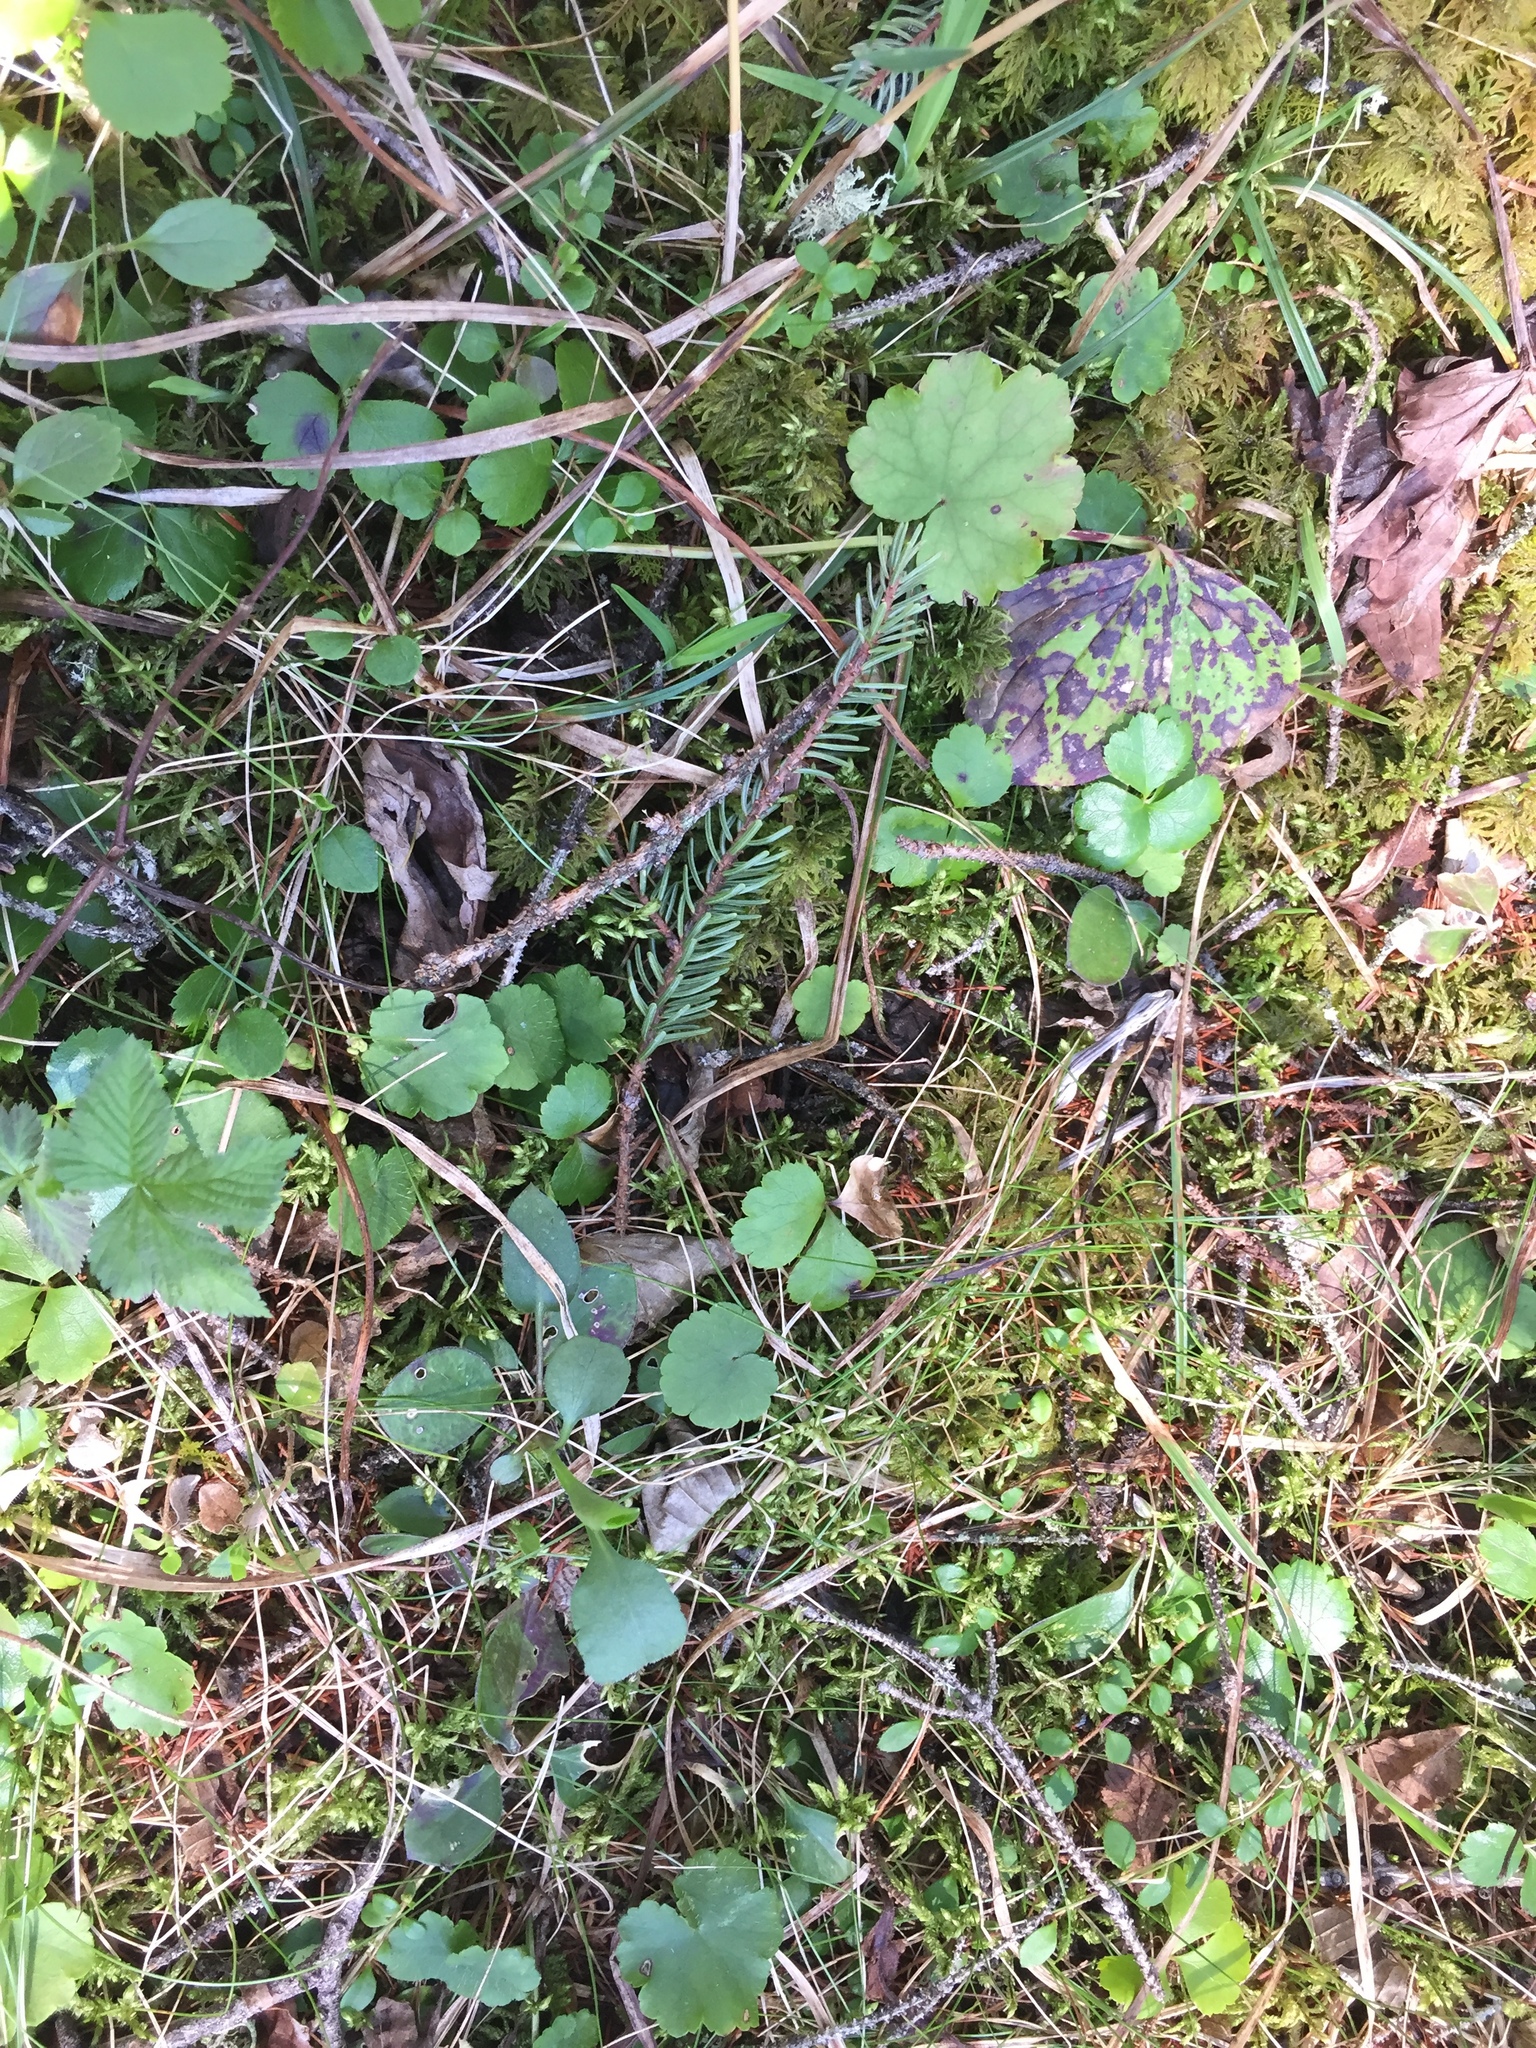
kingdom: Plantae
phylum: Tracheophyta
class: Magnoliopsida
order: Saxifragales
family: Saxifragaceae
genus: Mitella
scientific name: Mitella nuda
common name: Bare-stemmed bishop's-cap
